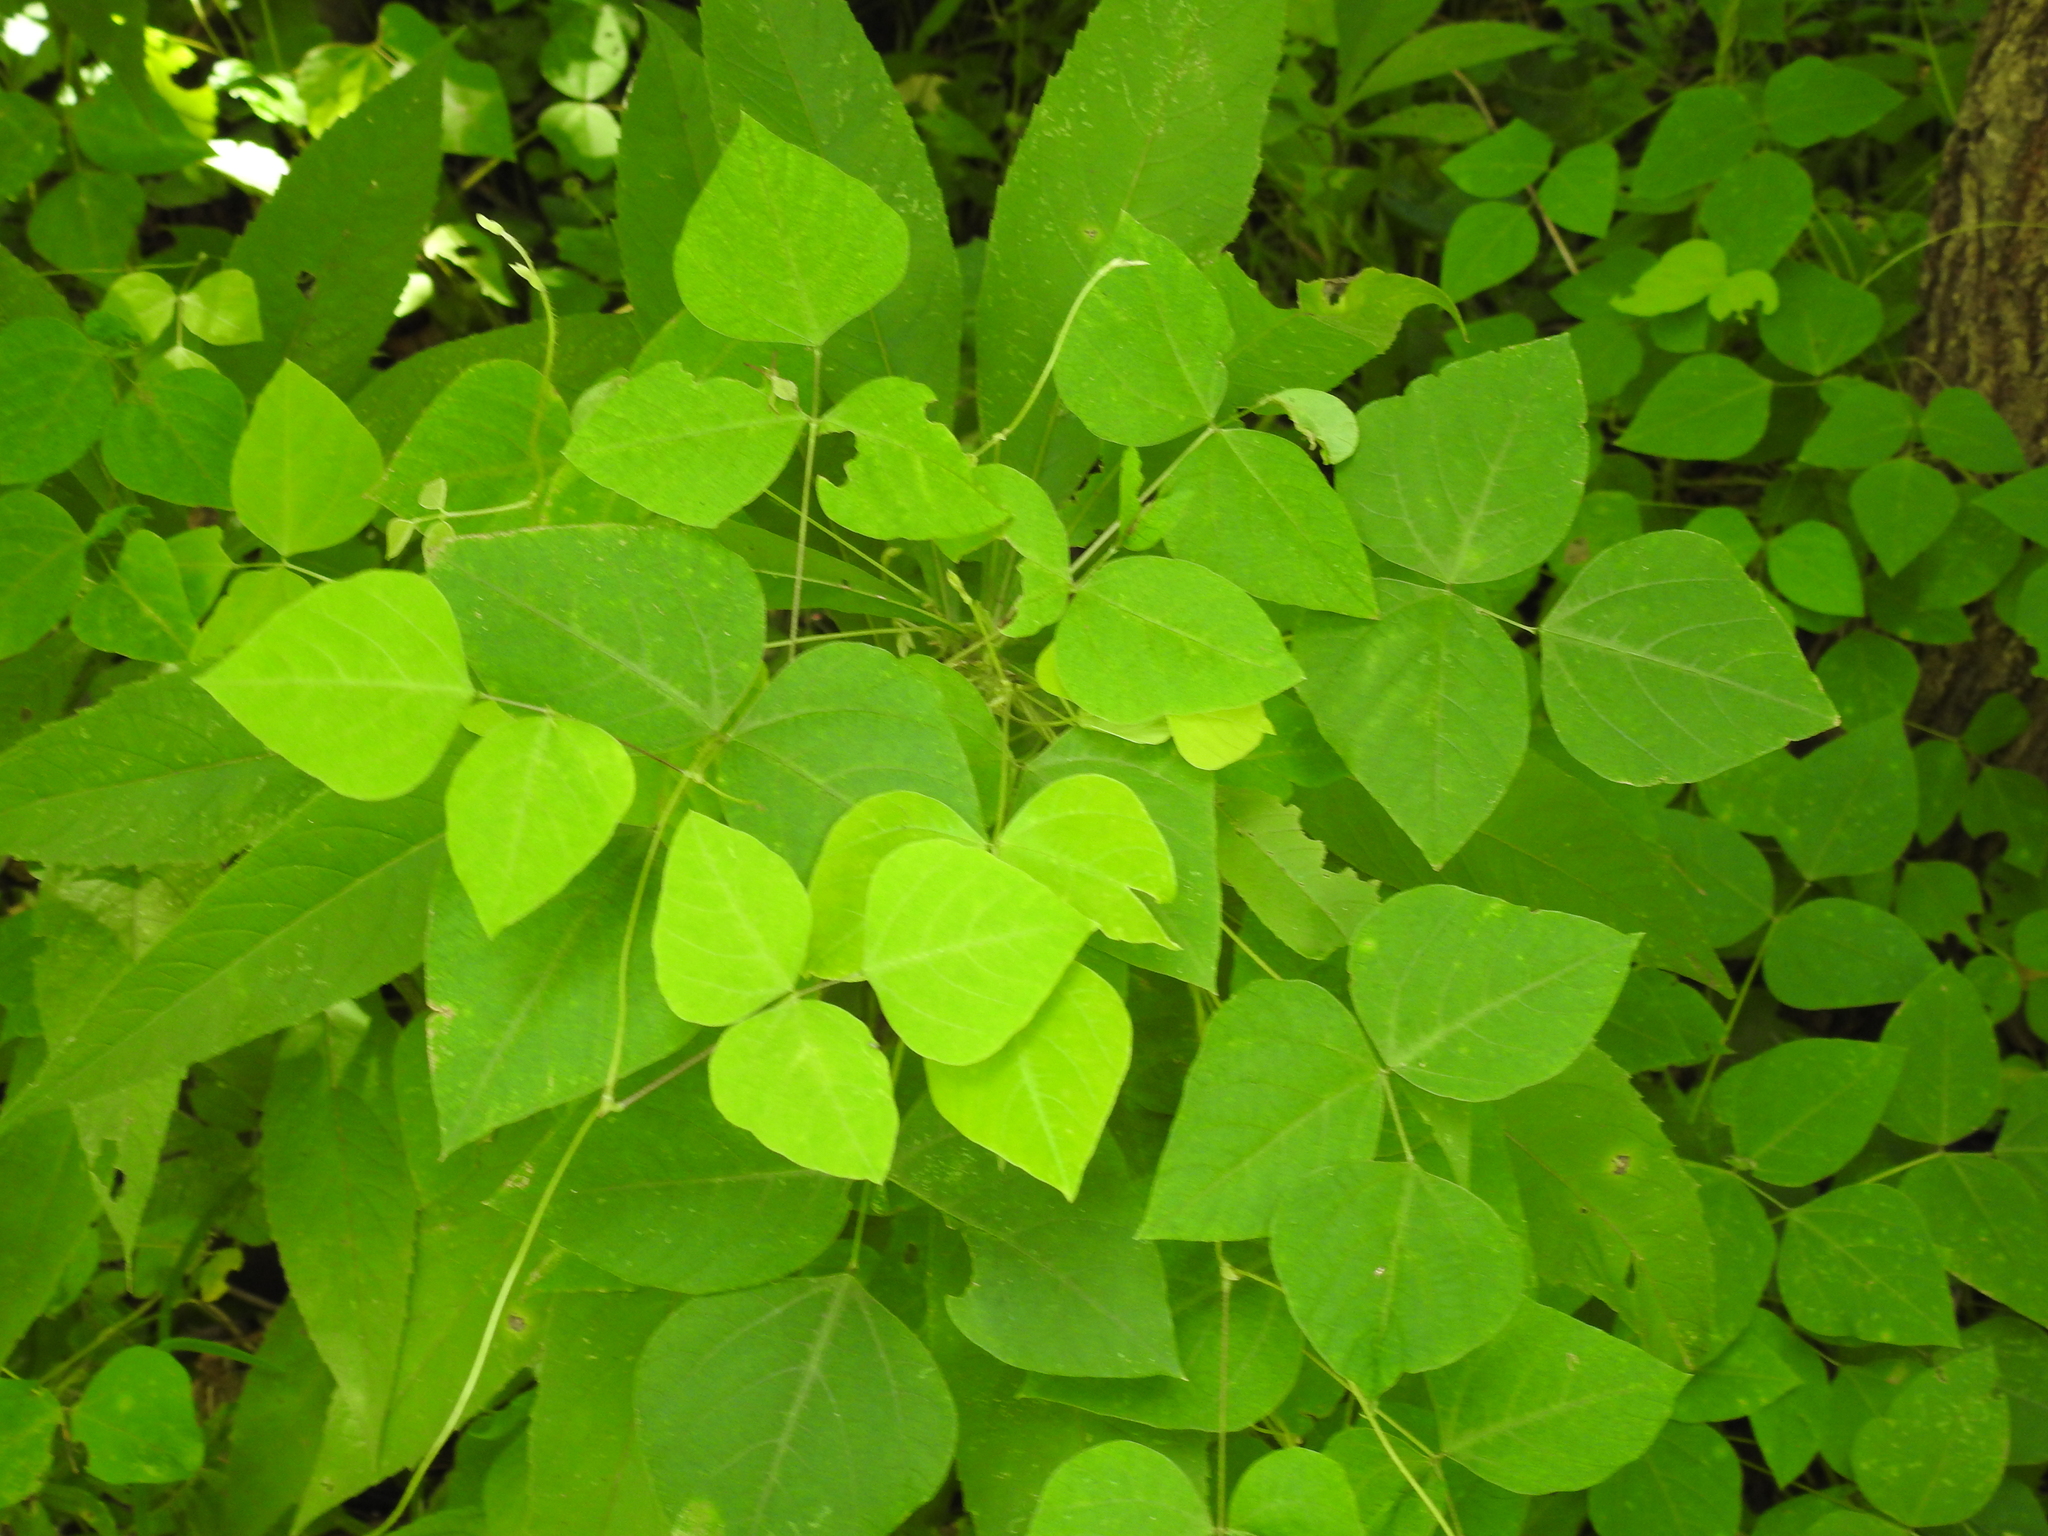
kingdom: Plantae
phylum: Tracheophyta
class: Magnoliopsida
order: Fabales
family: Fabaceae
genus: Amphicarpaea
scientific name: Amphicarpaea bracteata
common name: American hog peanut
